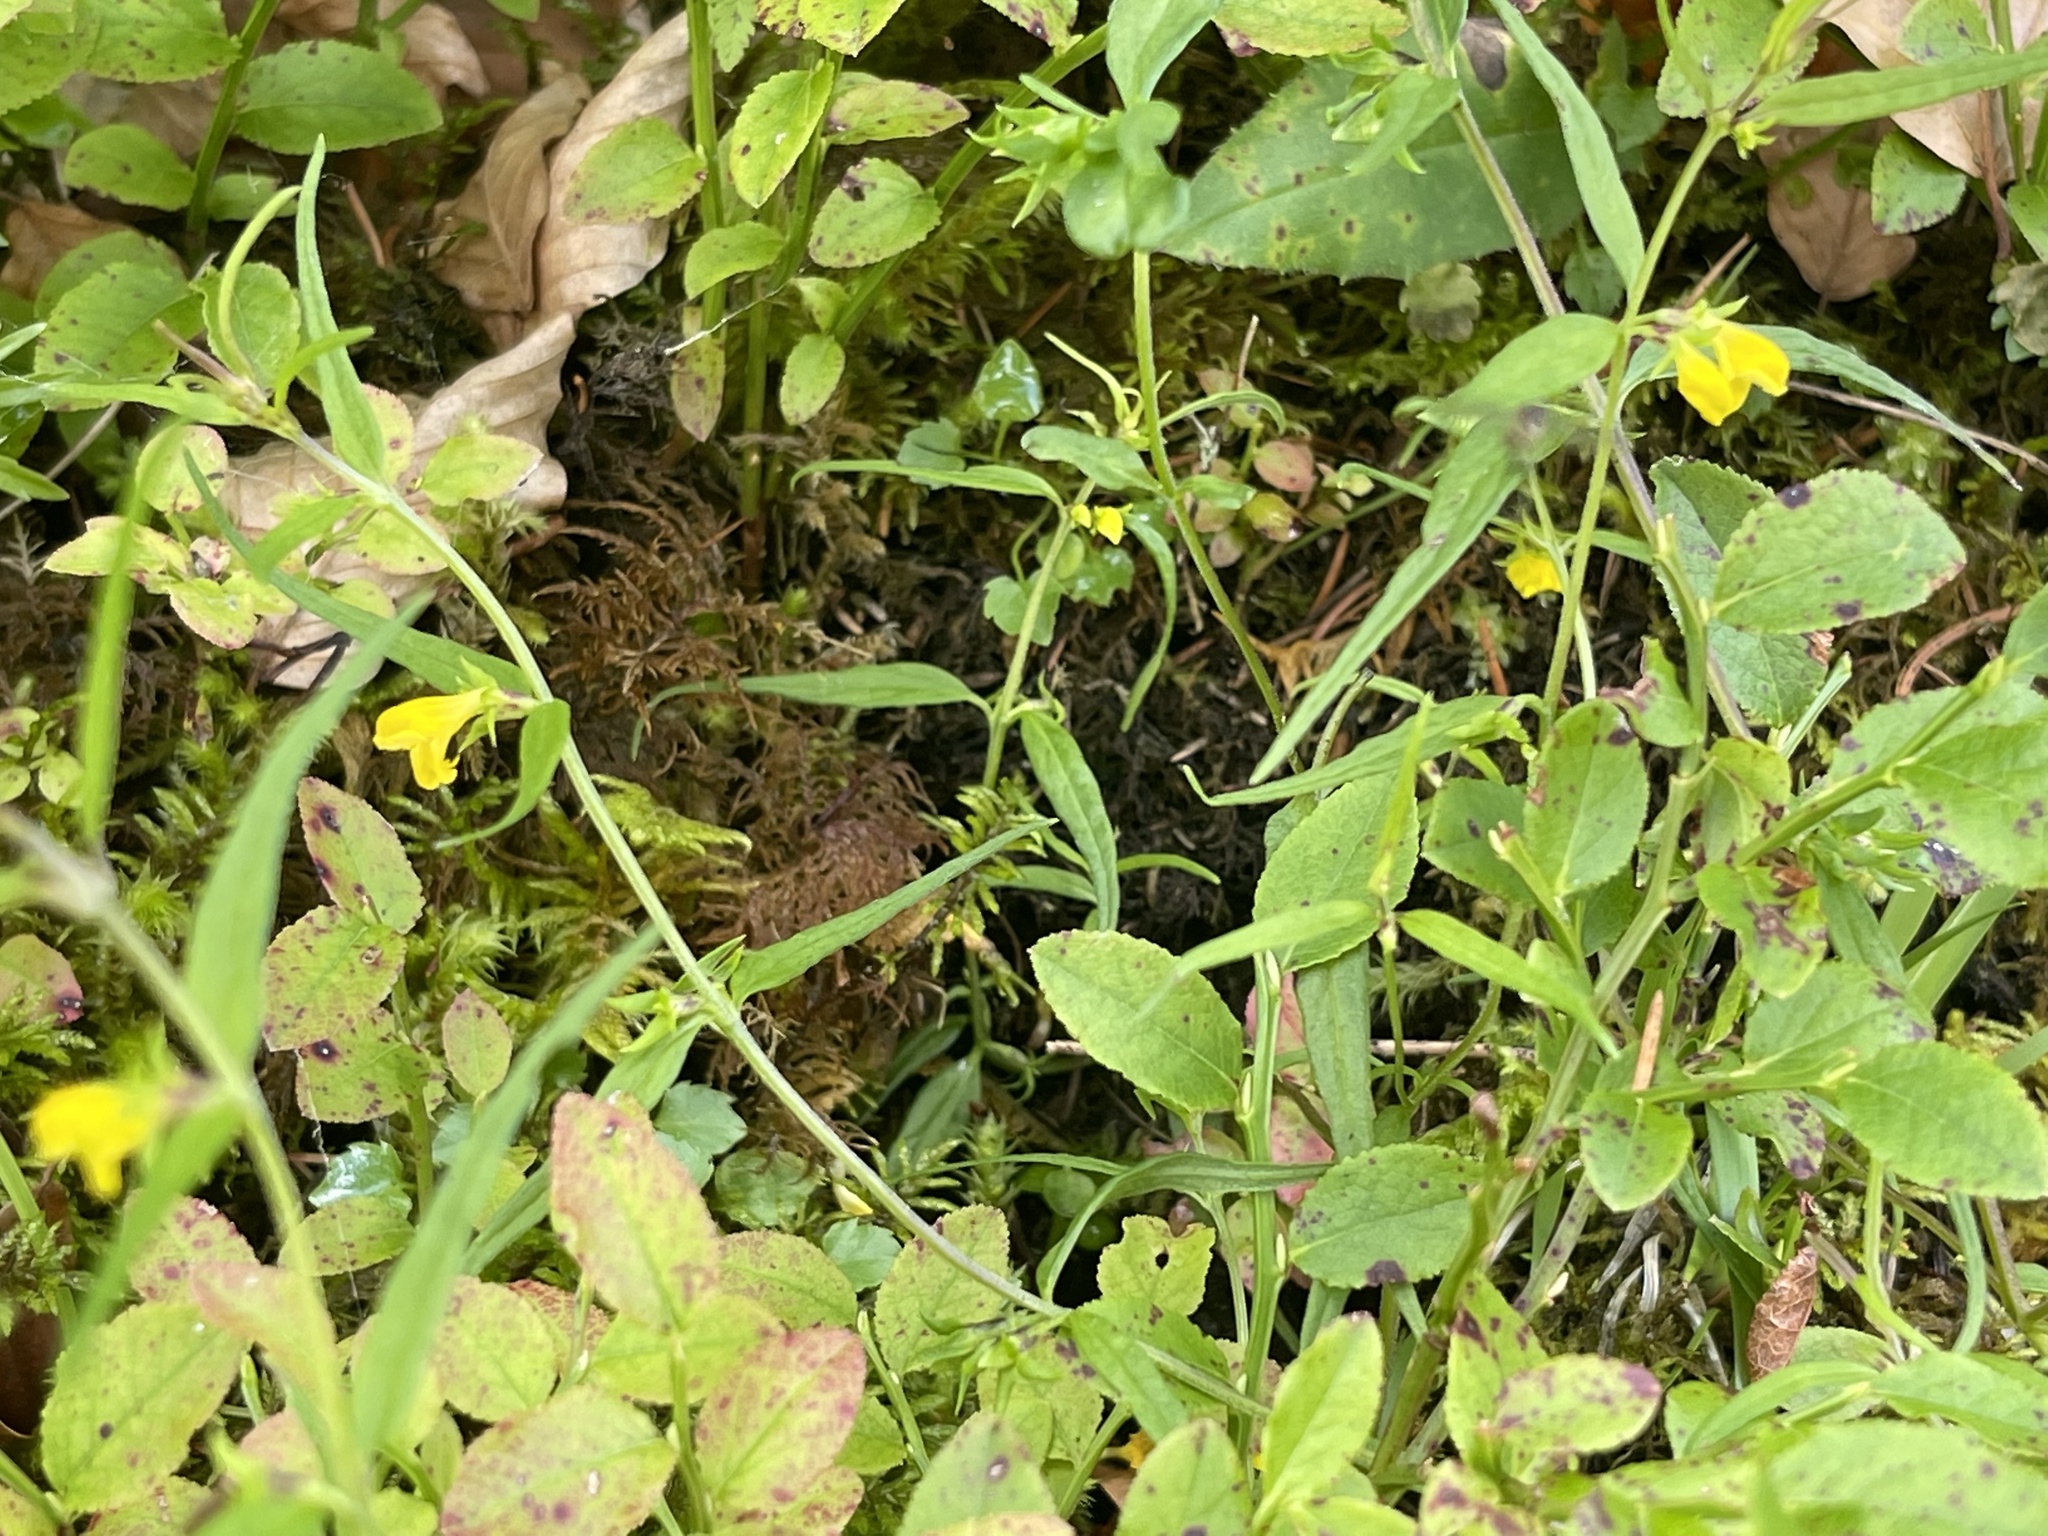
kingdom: Plantae
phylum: Tracheophyta
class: Magnoliopsida
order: Lamiales
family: Orobanchaceae
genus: Melampyrum
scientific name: Melampyrum sylvaticum
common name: Small cow-wheat
